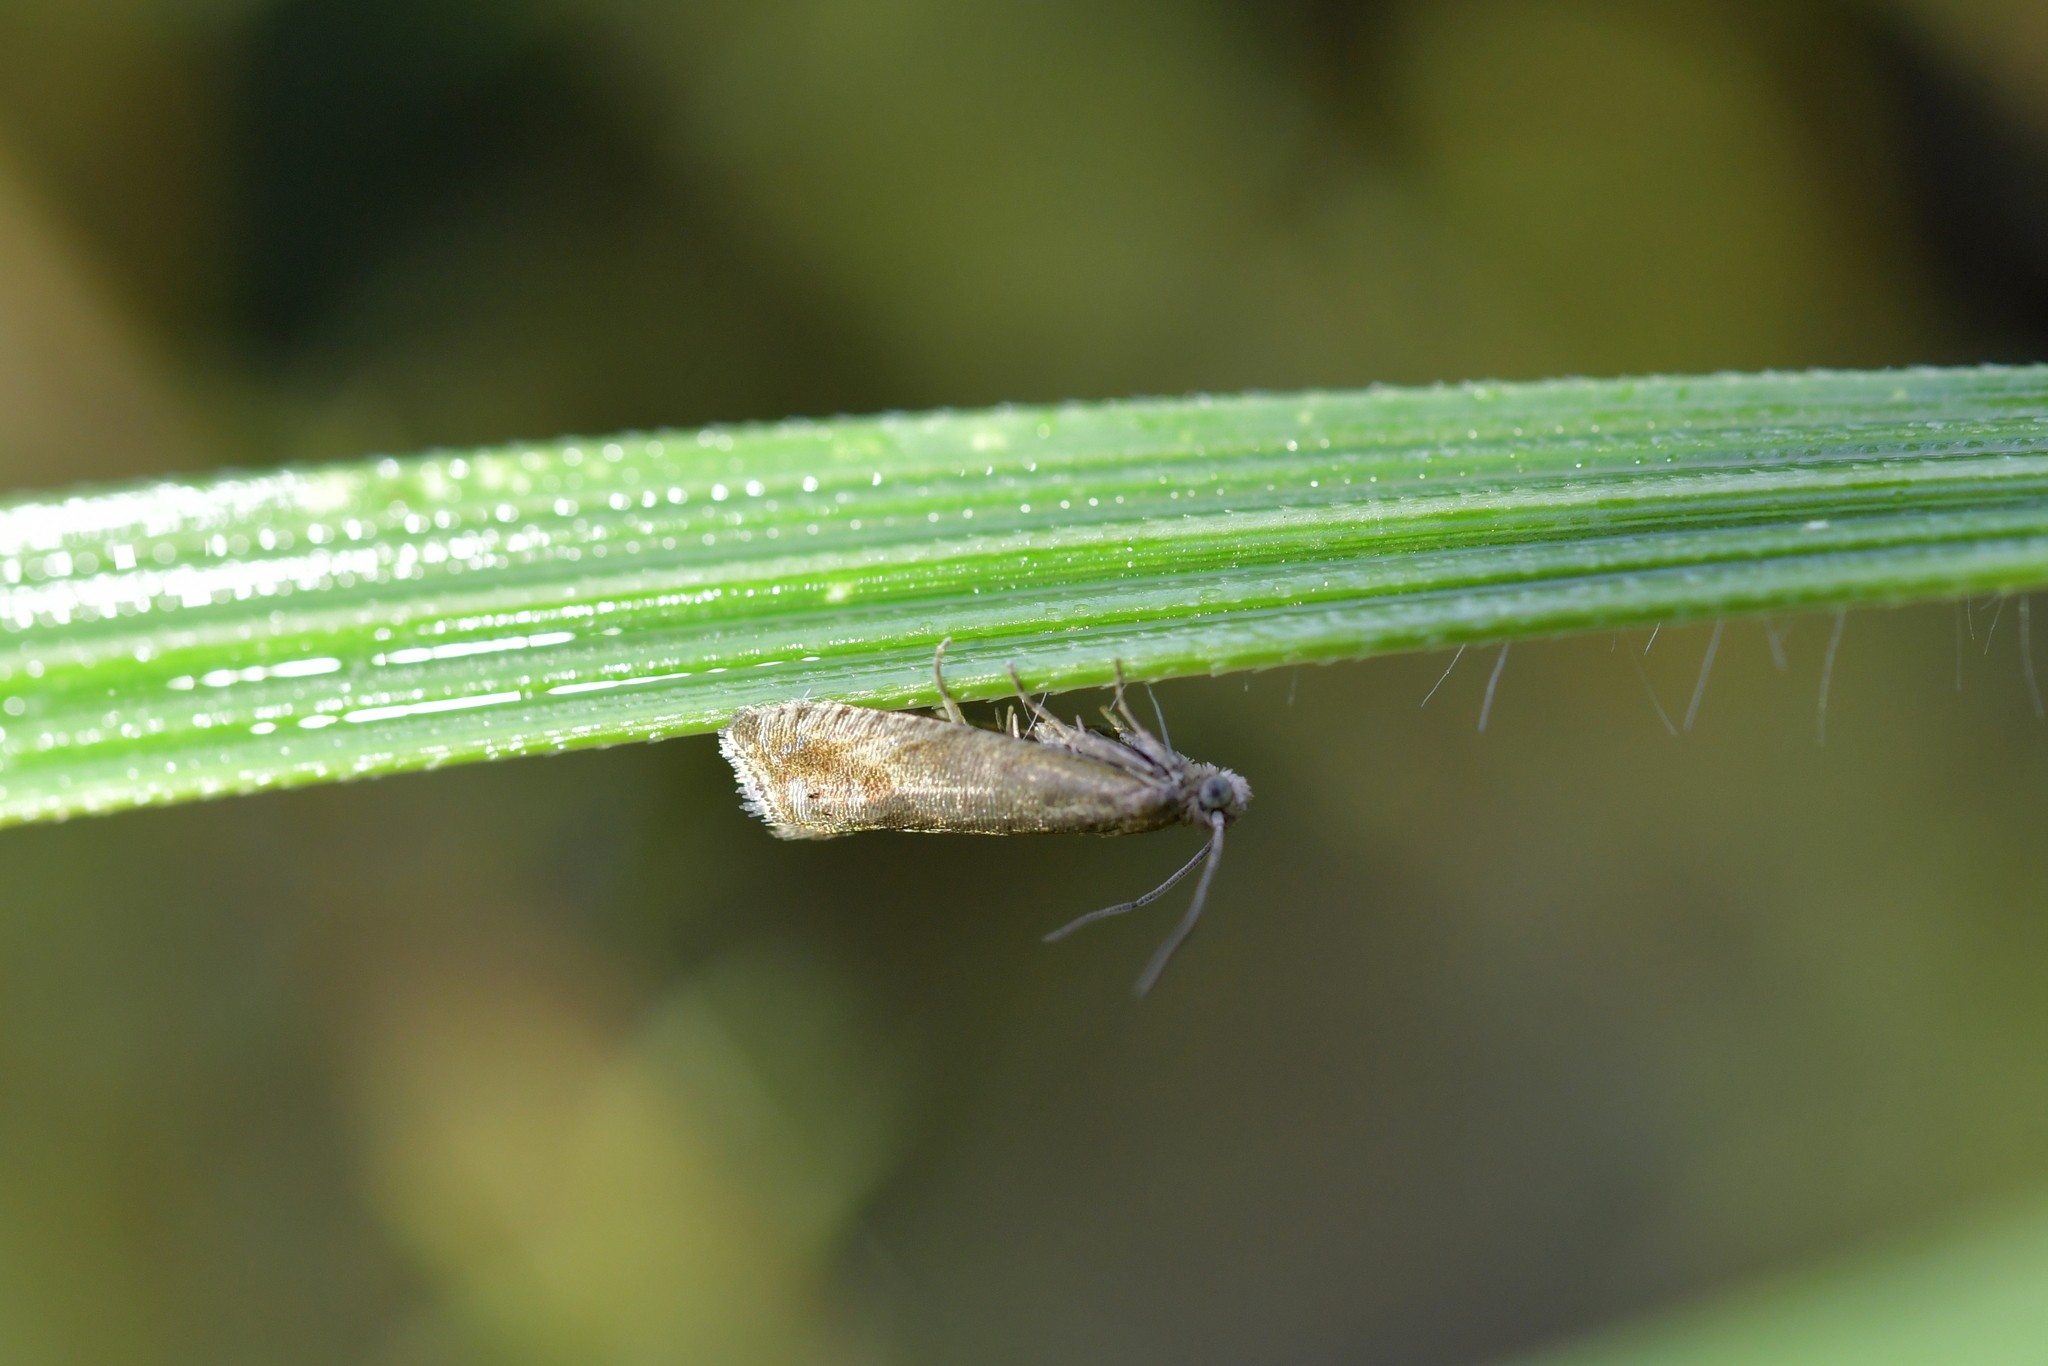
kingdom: Animalia
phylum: Arthropoda
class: Insecta
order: Lepidoptera
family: Tortricidae
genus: Cydia
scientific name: Cydia succedana
